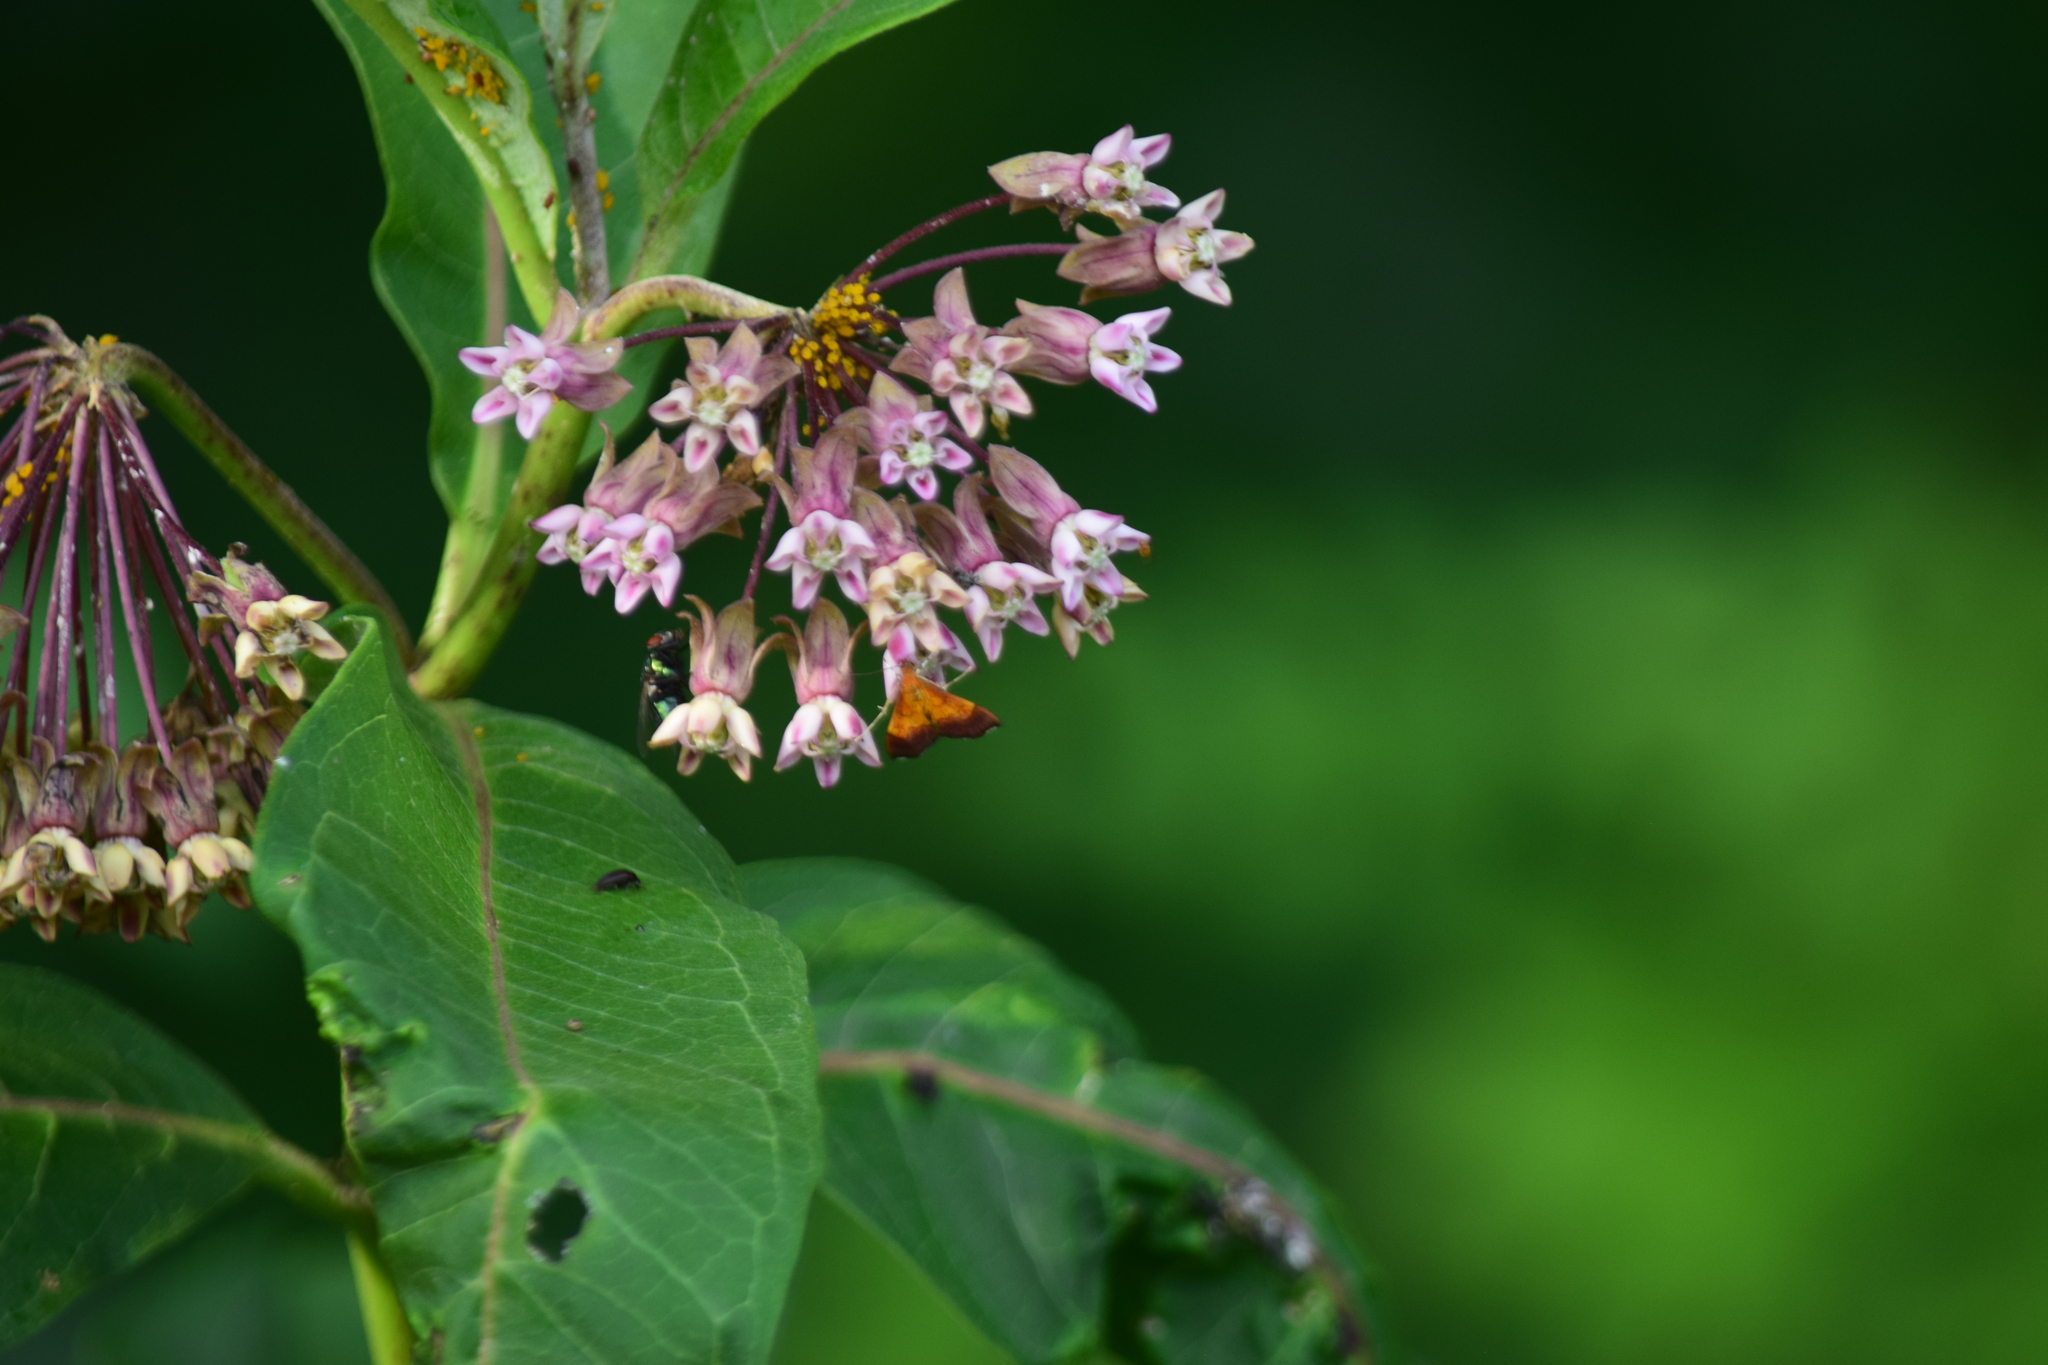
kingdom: Animalia
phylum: Arthropoda
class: Insecta
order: Lepidoptera
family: Crambidae
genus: Pyrausta
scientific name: Pyrausta bicoloralis
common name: Bicolored pyrausta moth
